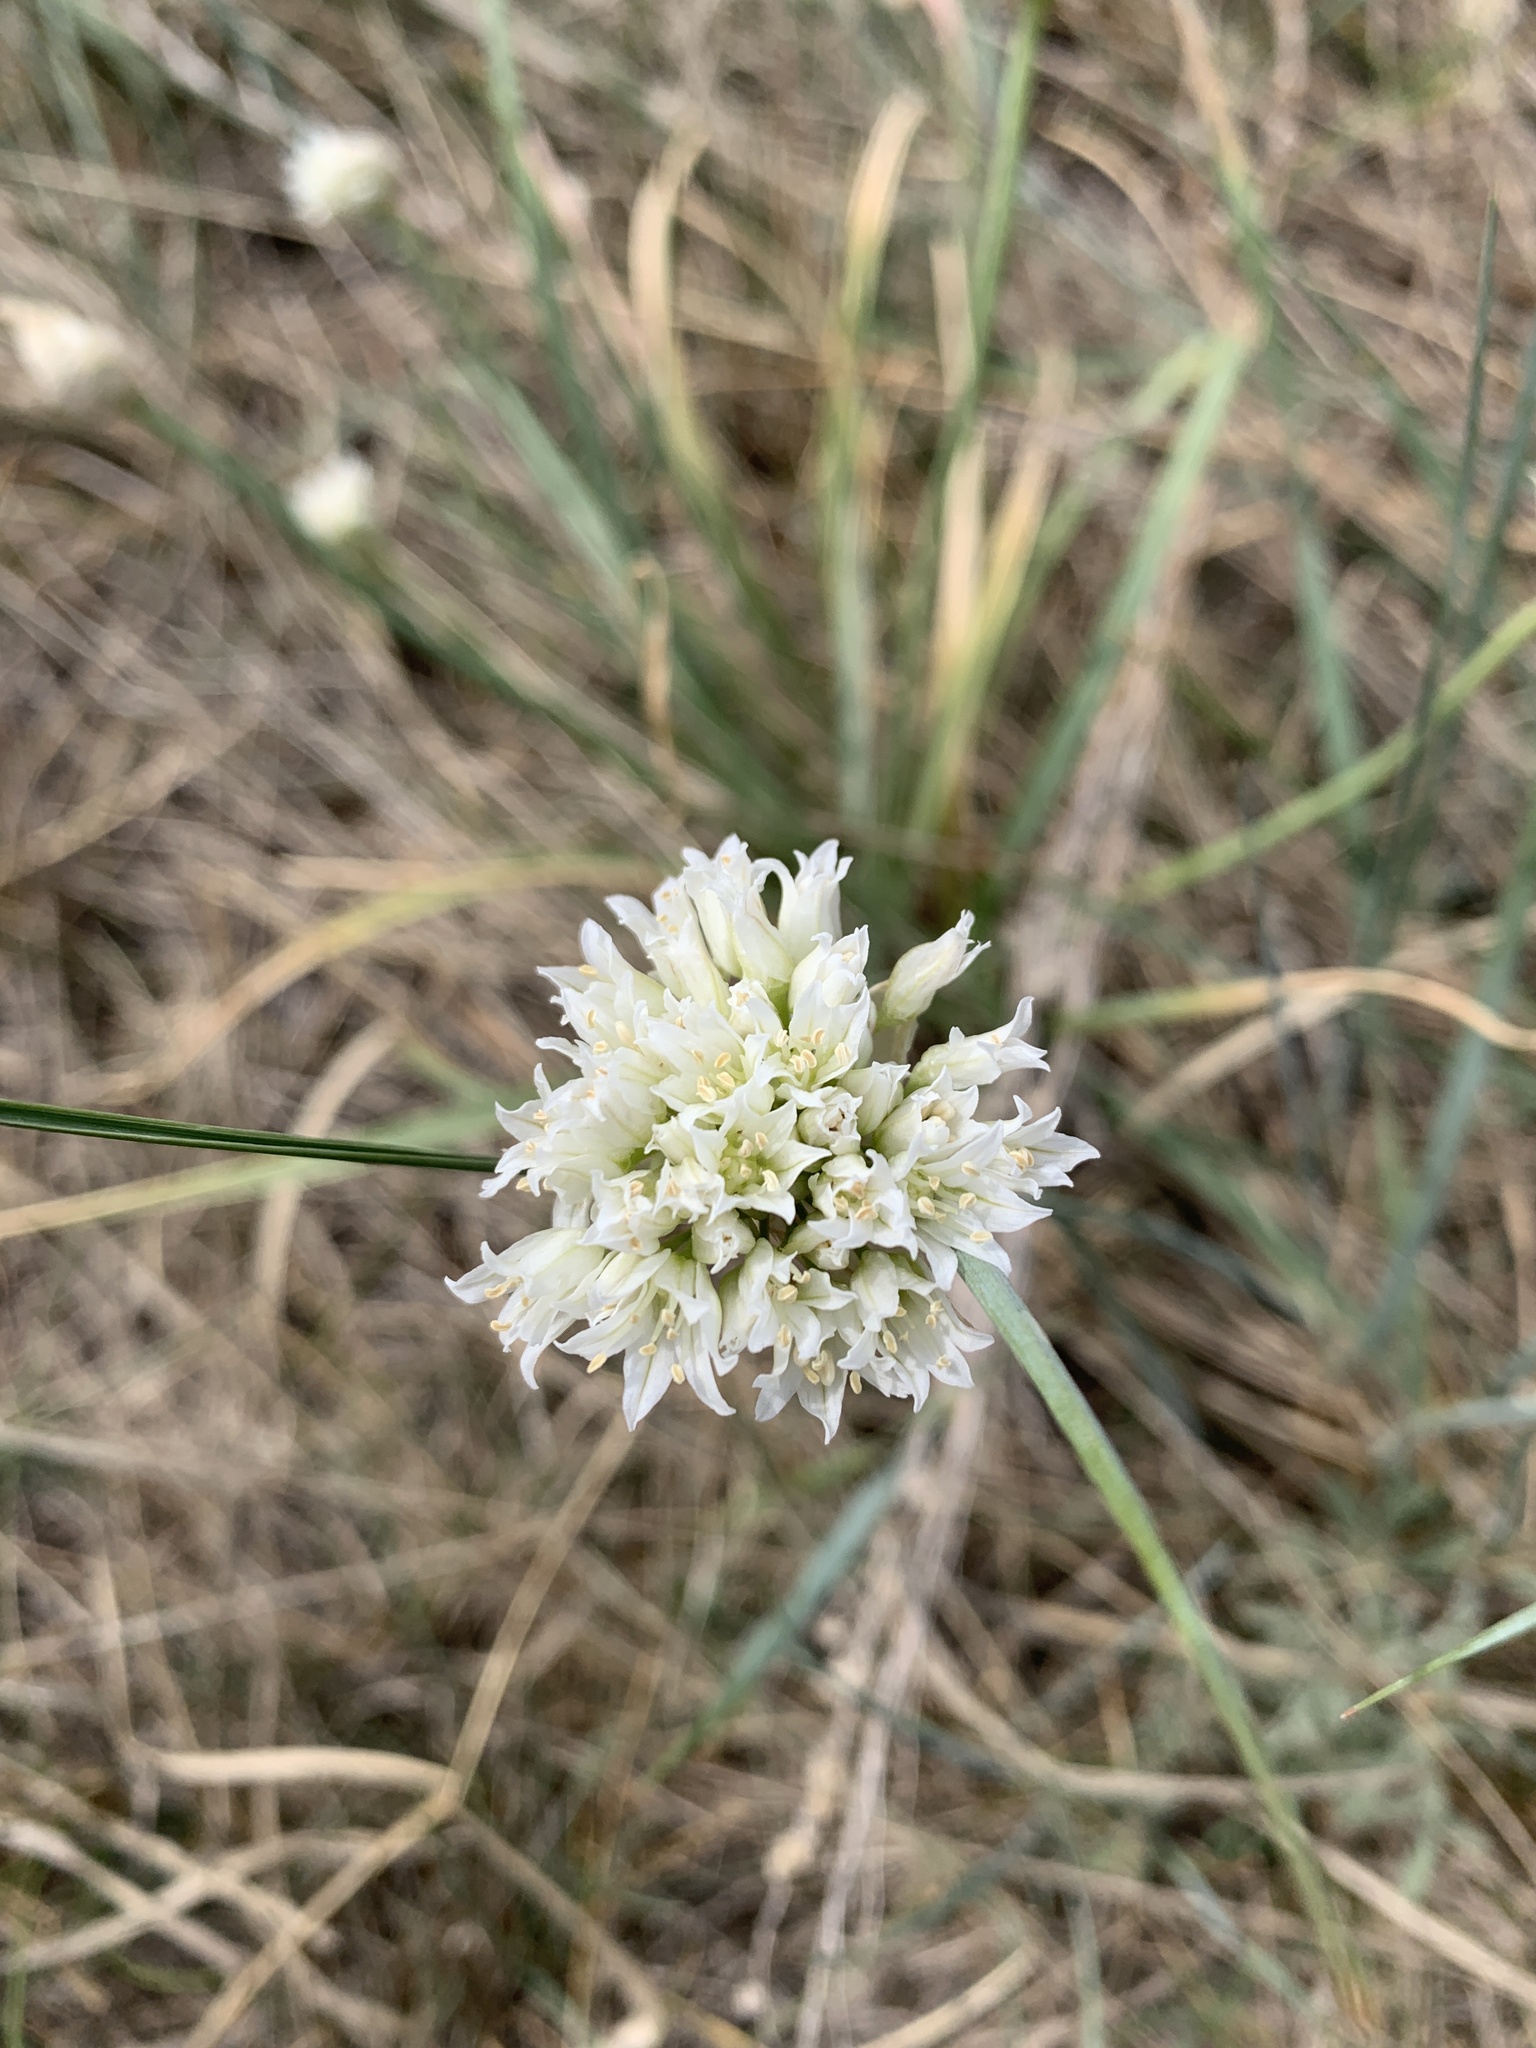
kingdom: Plantae
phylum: Tracheophyta
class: Liliopsida
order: Asparagales
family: Amaryllidaceae
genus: Allium
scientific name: Allium textile
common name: Prairie onion
